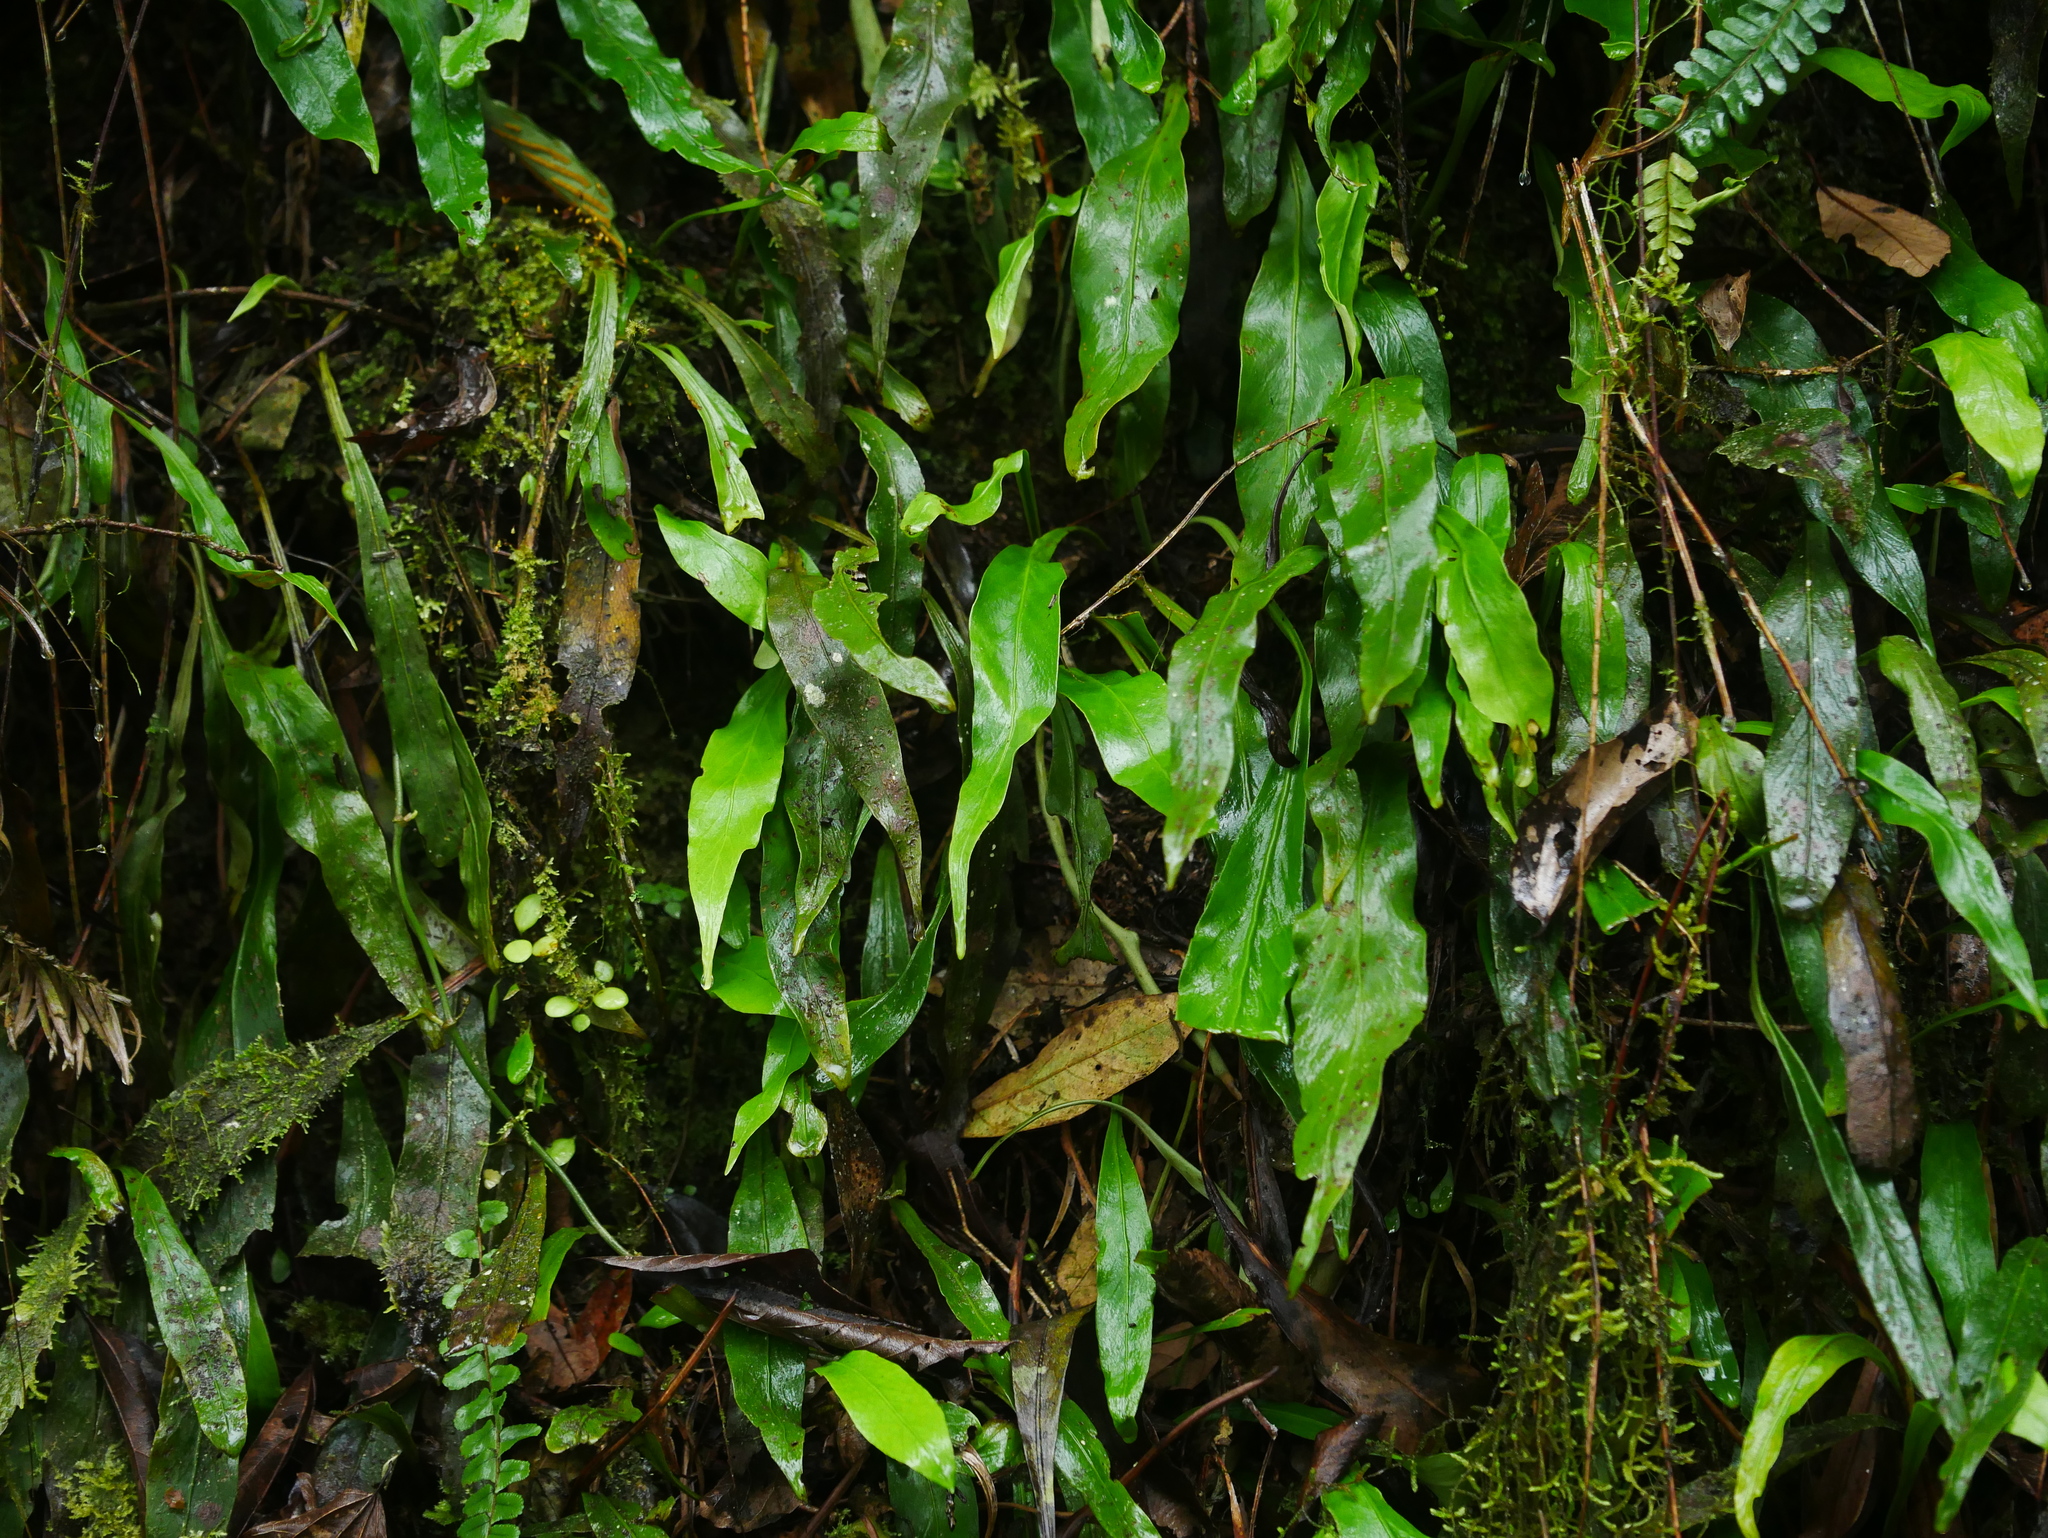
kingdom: Plantae
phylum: Tracheophyta
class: Polypodiopsida
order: Polypodiales
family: Polypodiaceae
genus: Loxogramme
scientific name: Loxogramme salicifolia
